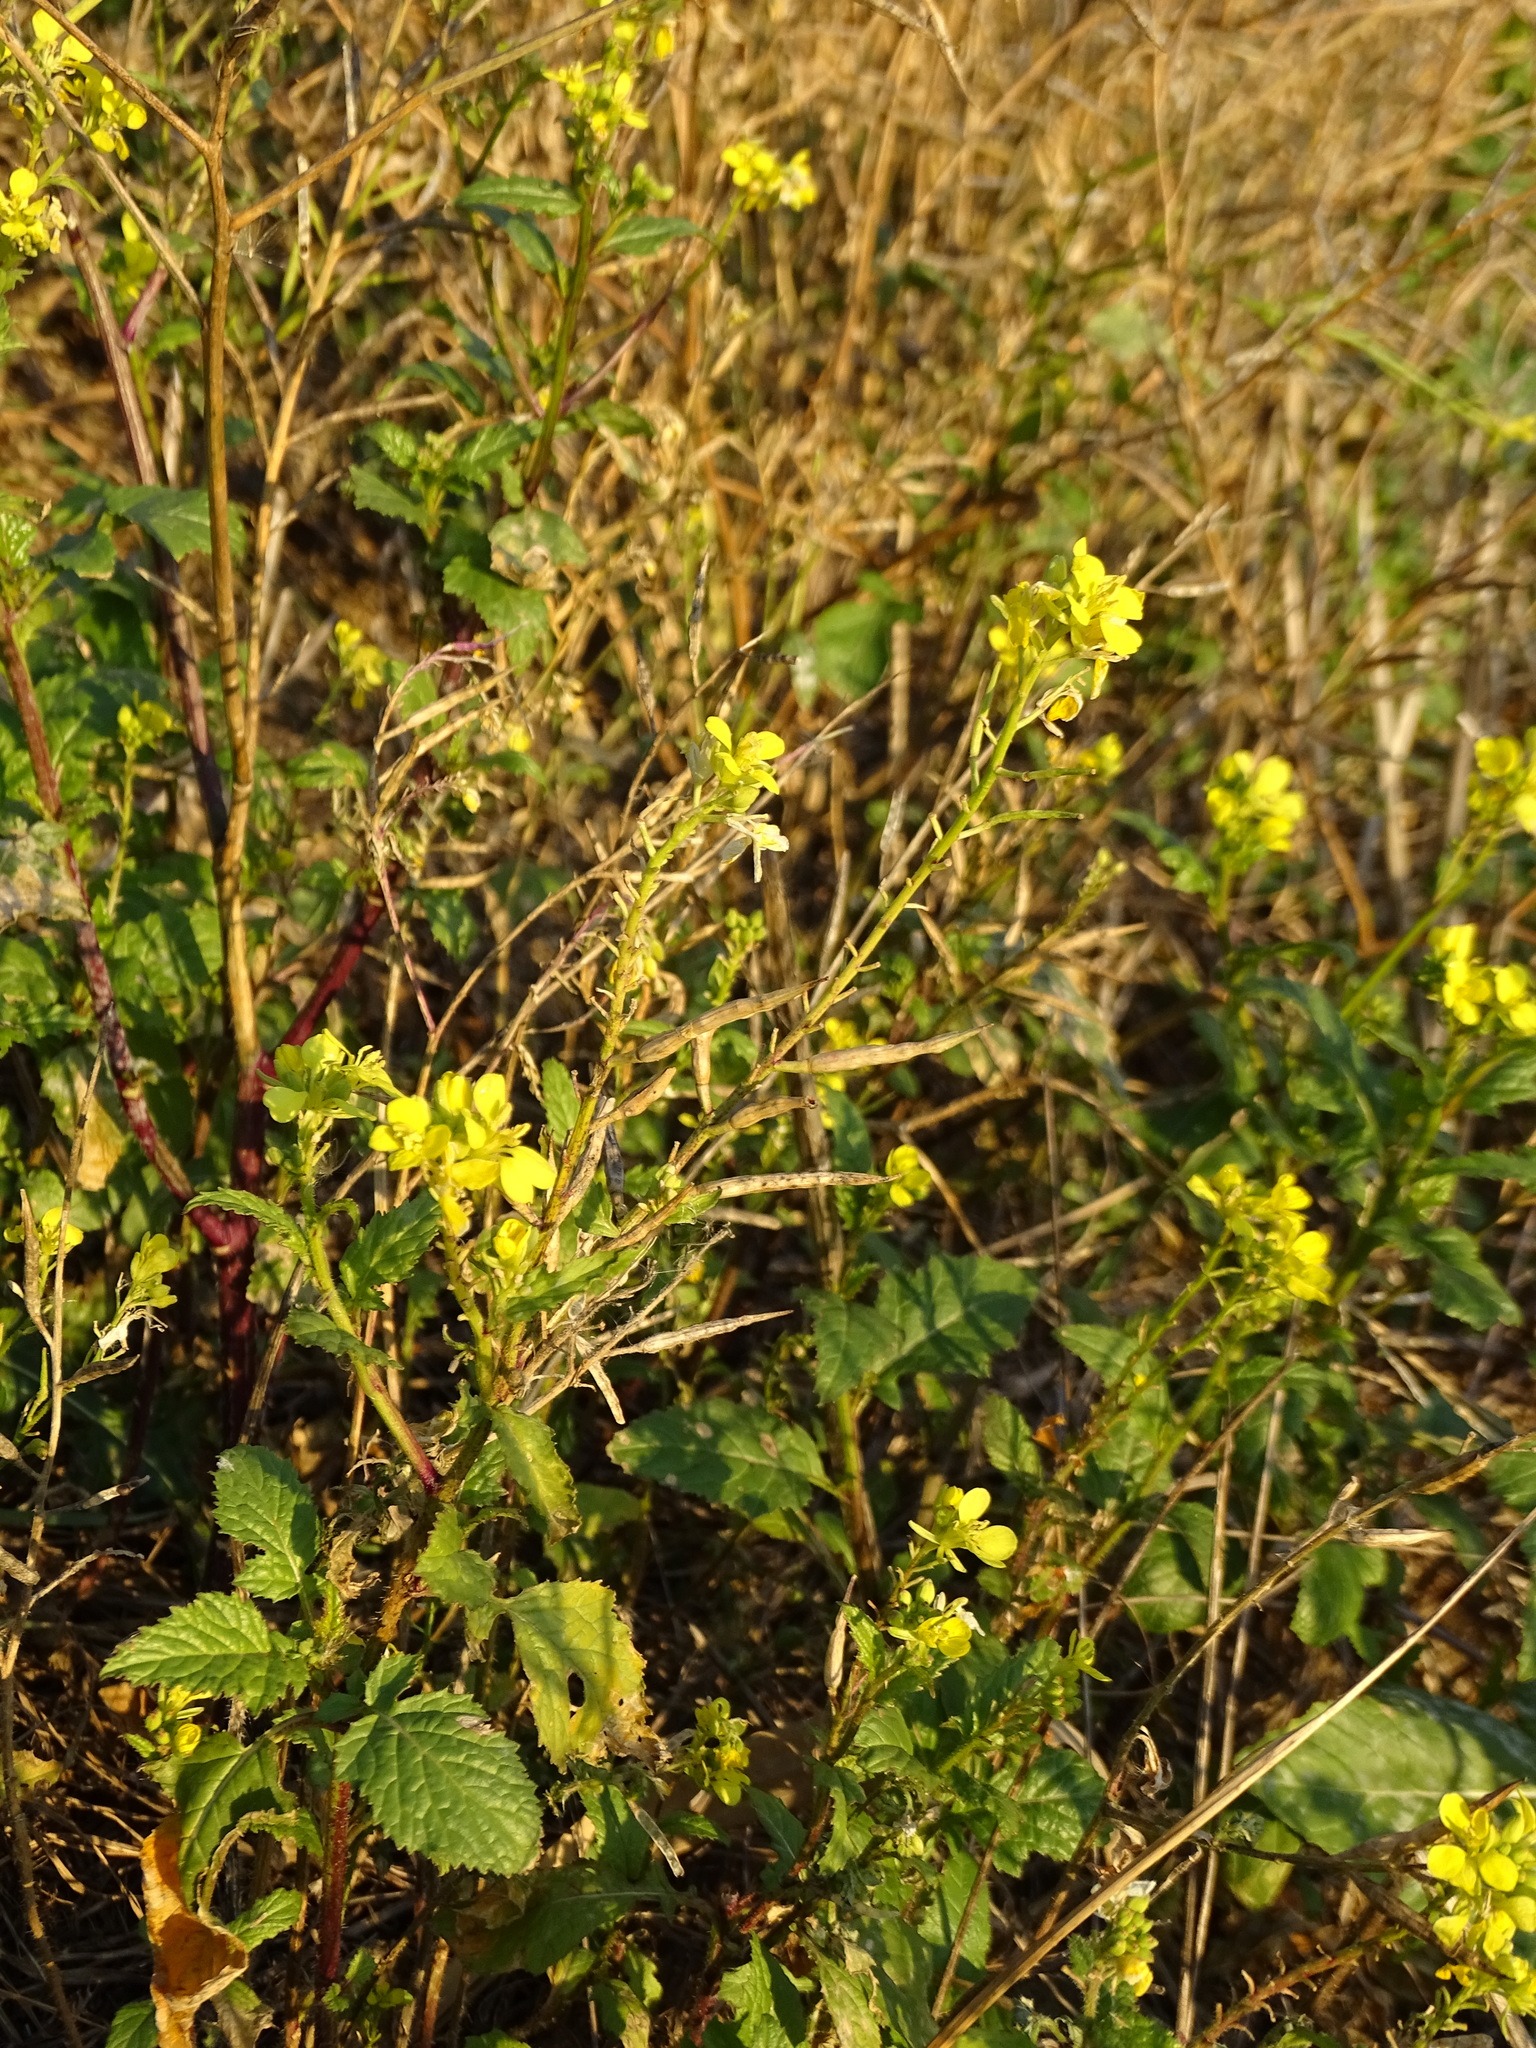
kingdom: Plantae
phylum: Tracheophyta
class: Magnoliopsida
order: Brassicales
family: Brassicaceae
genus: Sinapis
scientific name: Sinapis arvensis
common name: Charlock
